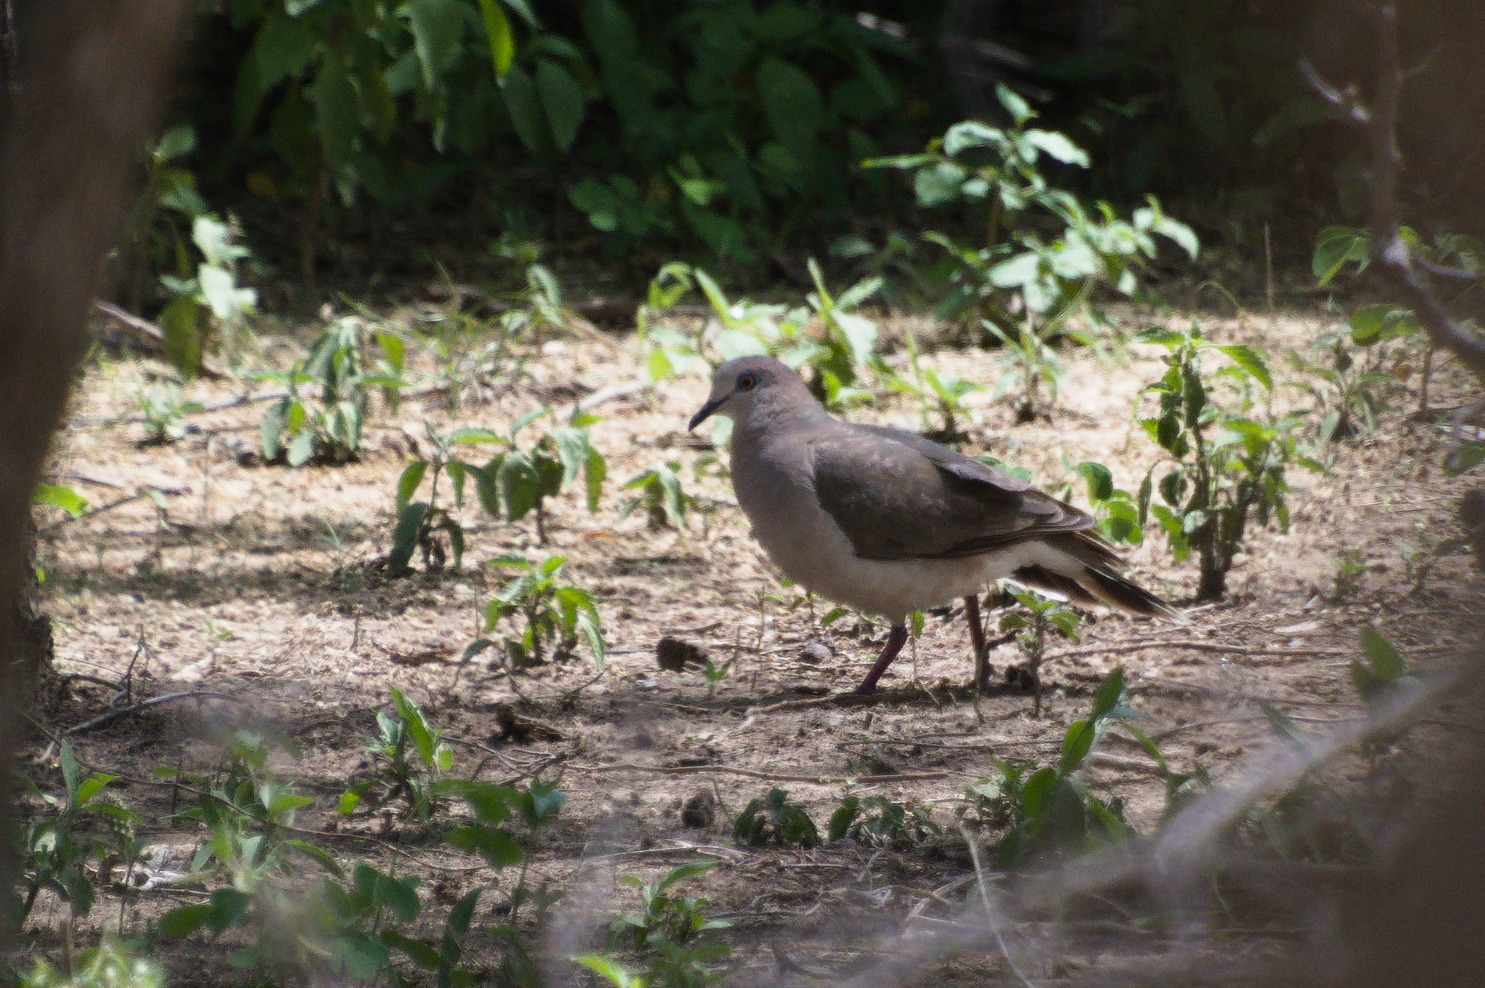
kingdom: Animalia
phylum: Chordata
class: Aves
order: Columbiformes
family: Columbidae
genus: Leptotila
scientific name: Leptotila verreauxi
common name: White-tipped dove
